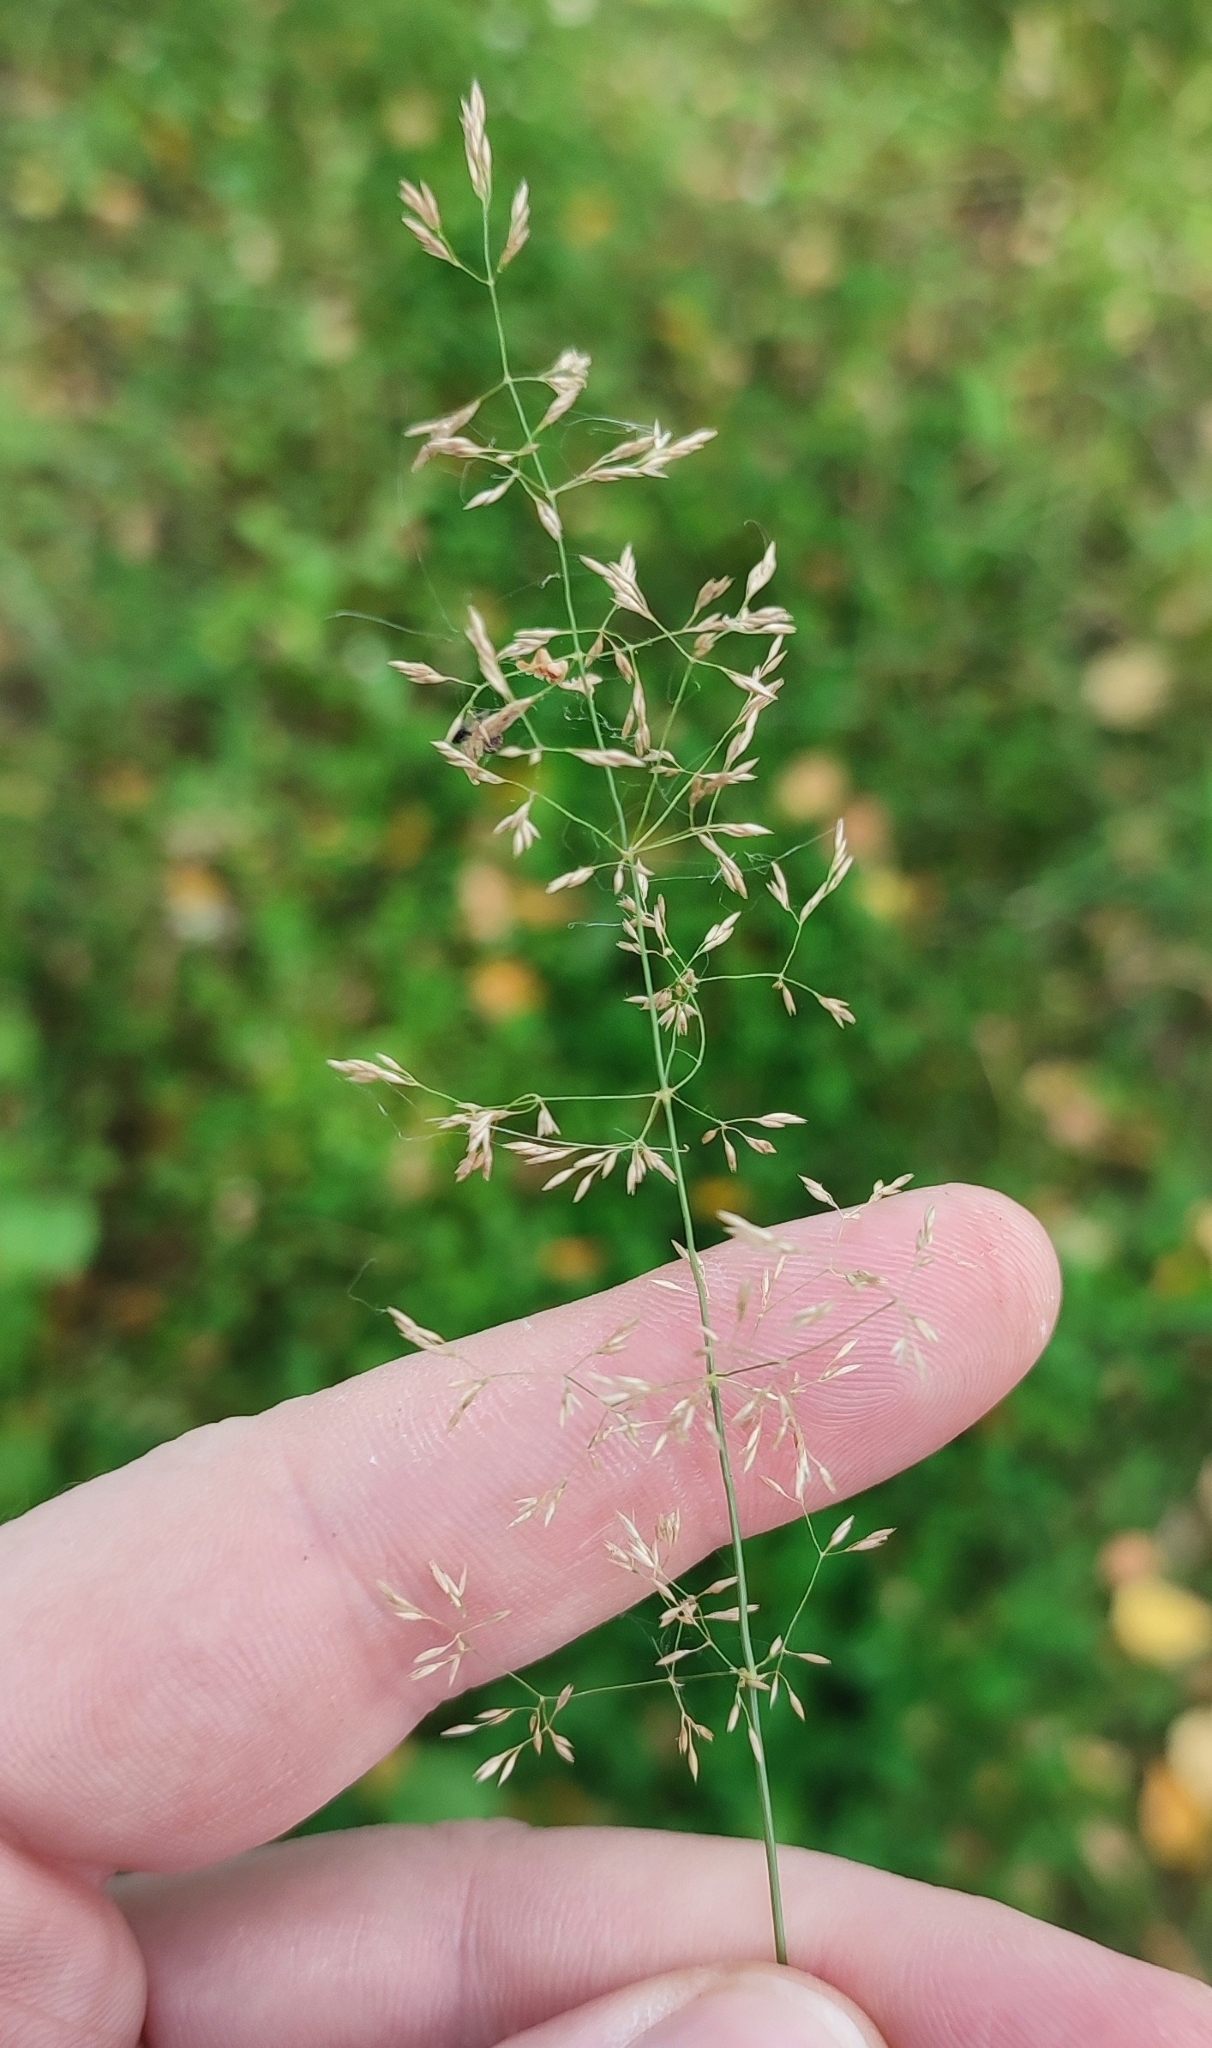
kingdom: Plantae
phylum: Tracheophyta
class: Liliopsida
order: Poales
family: Poaceae
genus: Agrostis
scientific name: Agrostis stolonifera
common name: Creeping bentgrass
